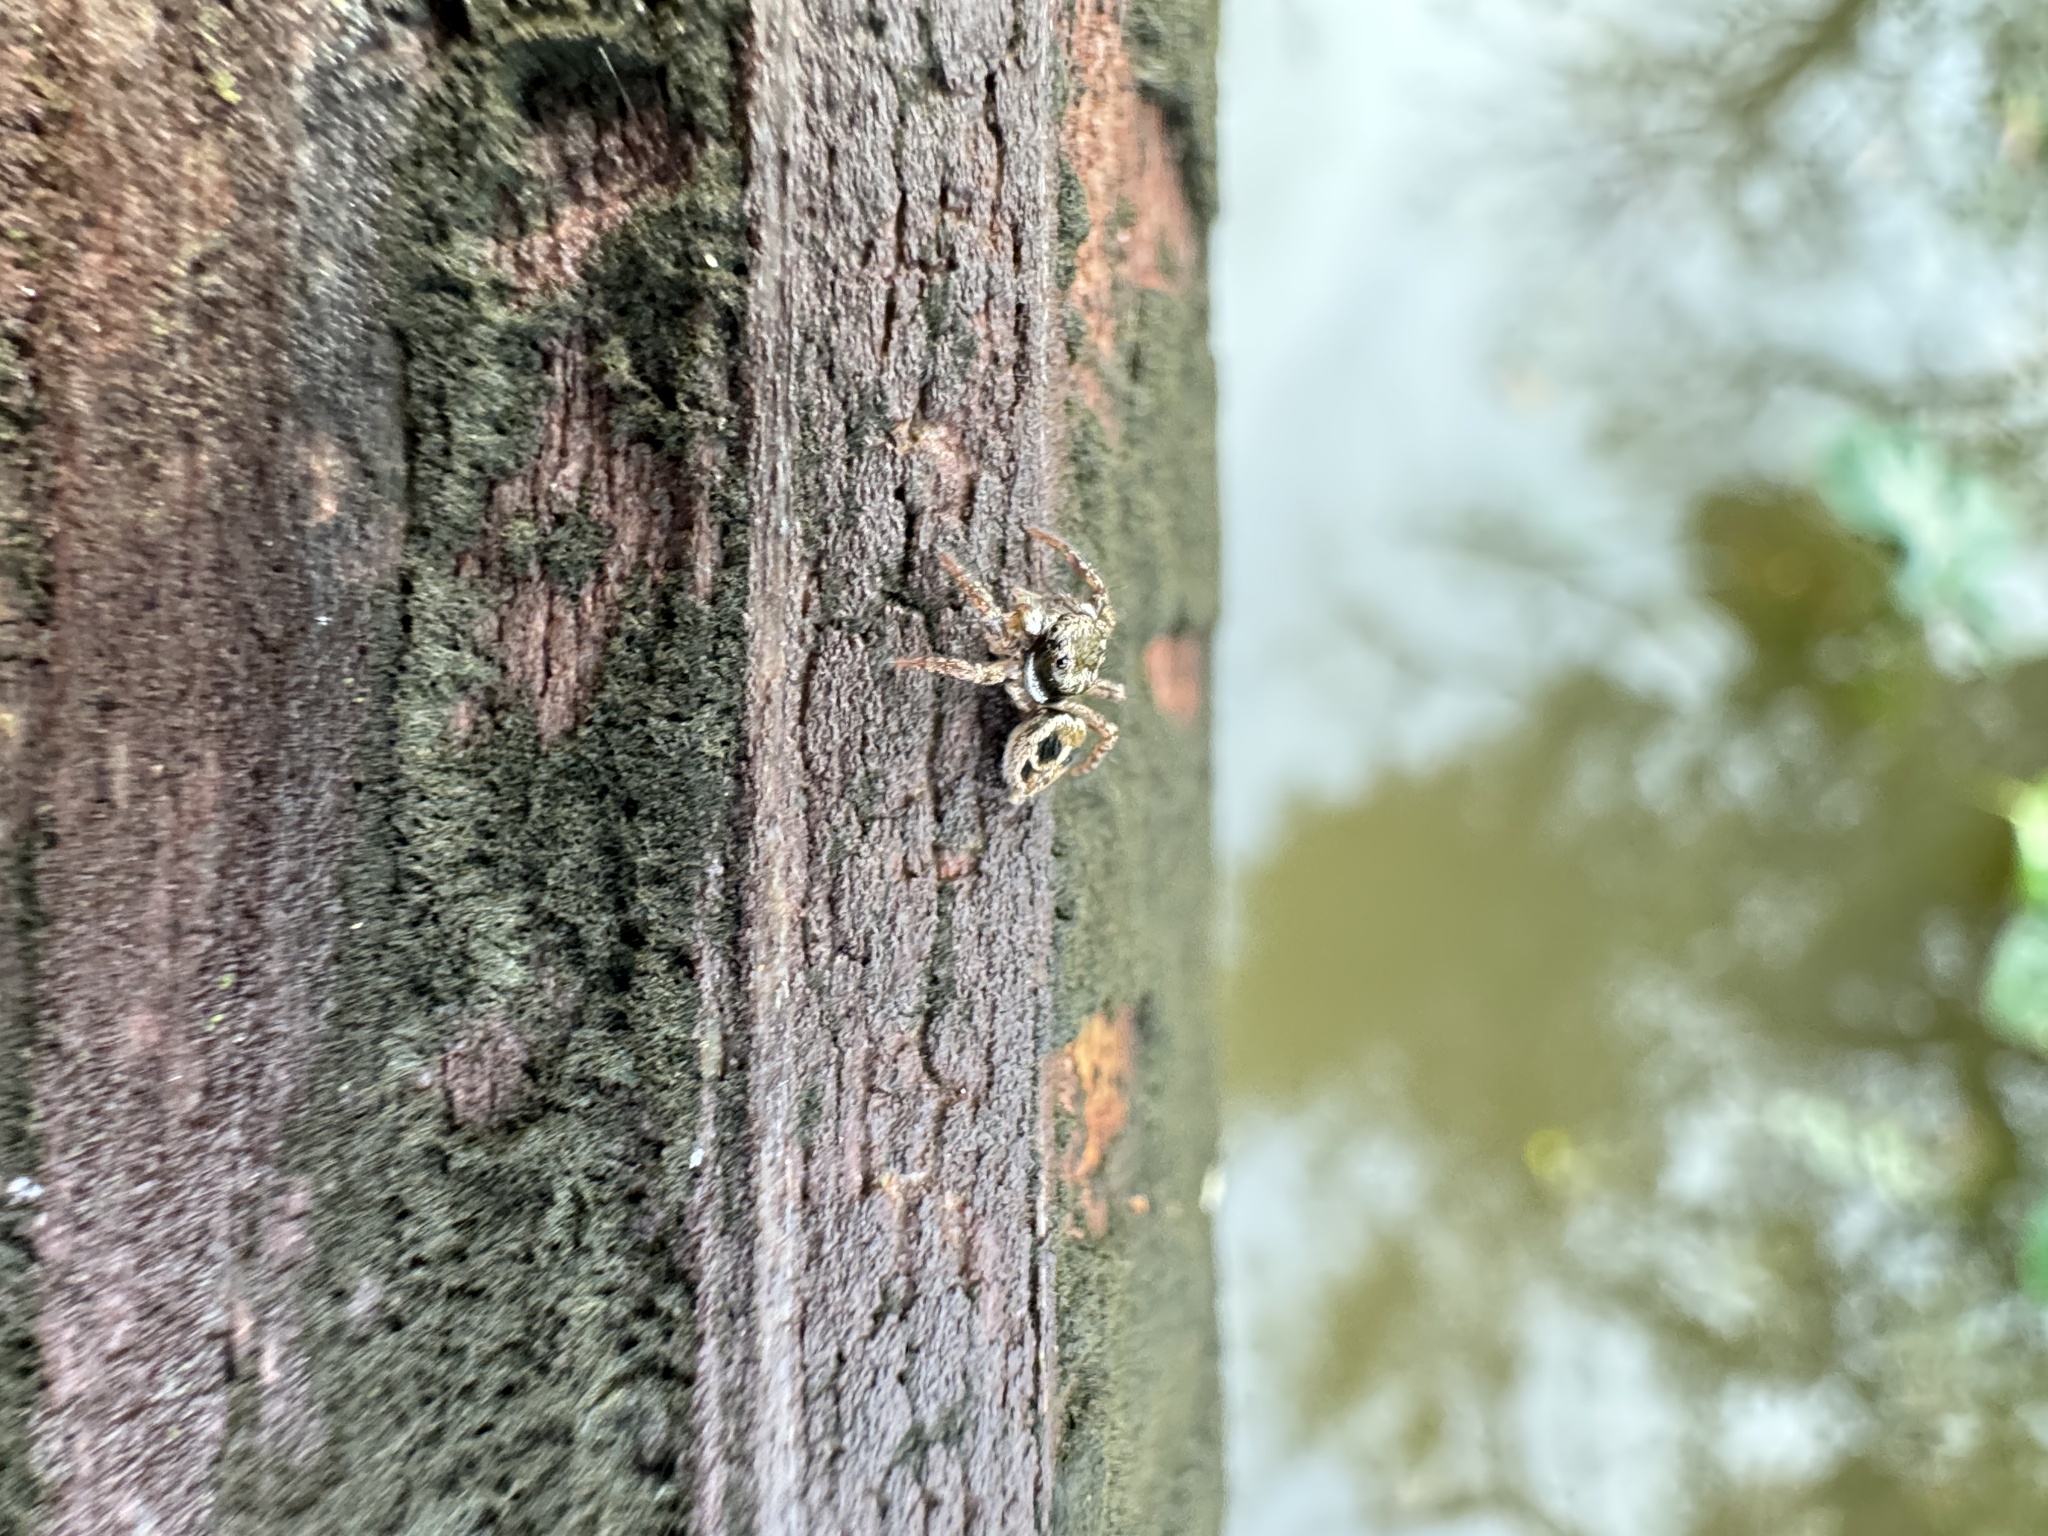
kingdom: Animalia
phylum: Arthropoda
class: Arachnida
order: Araneae
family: Salticidae
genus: Anasaitis
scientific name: Anasaitis canosa
